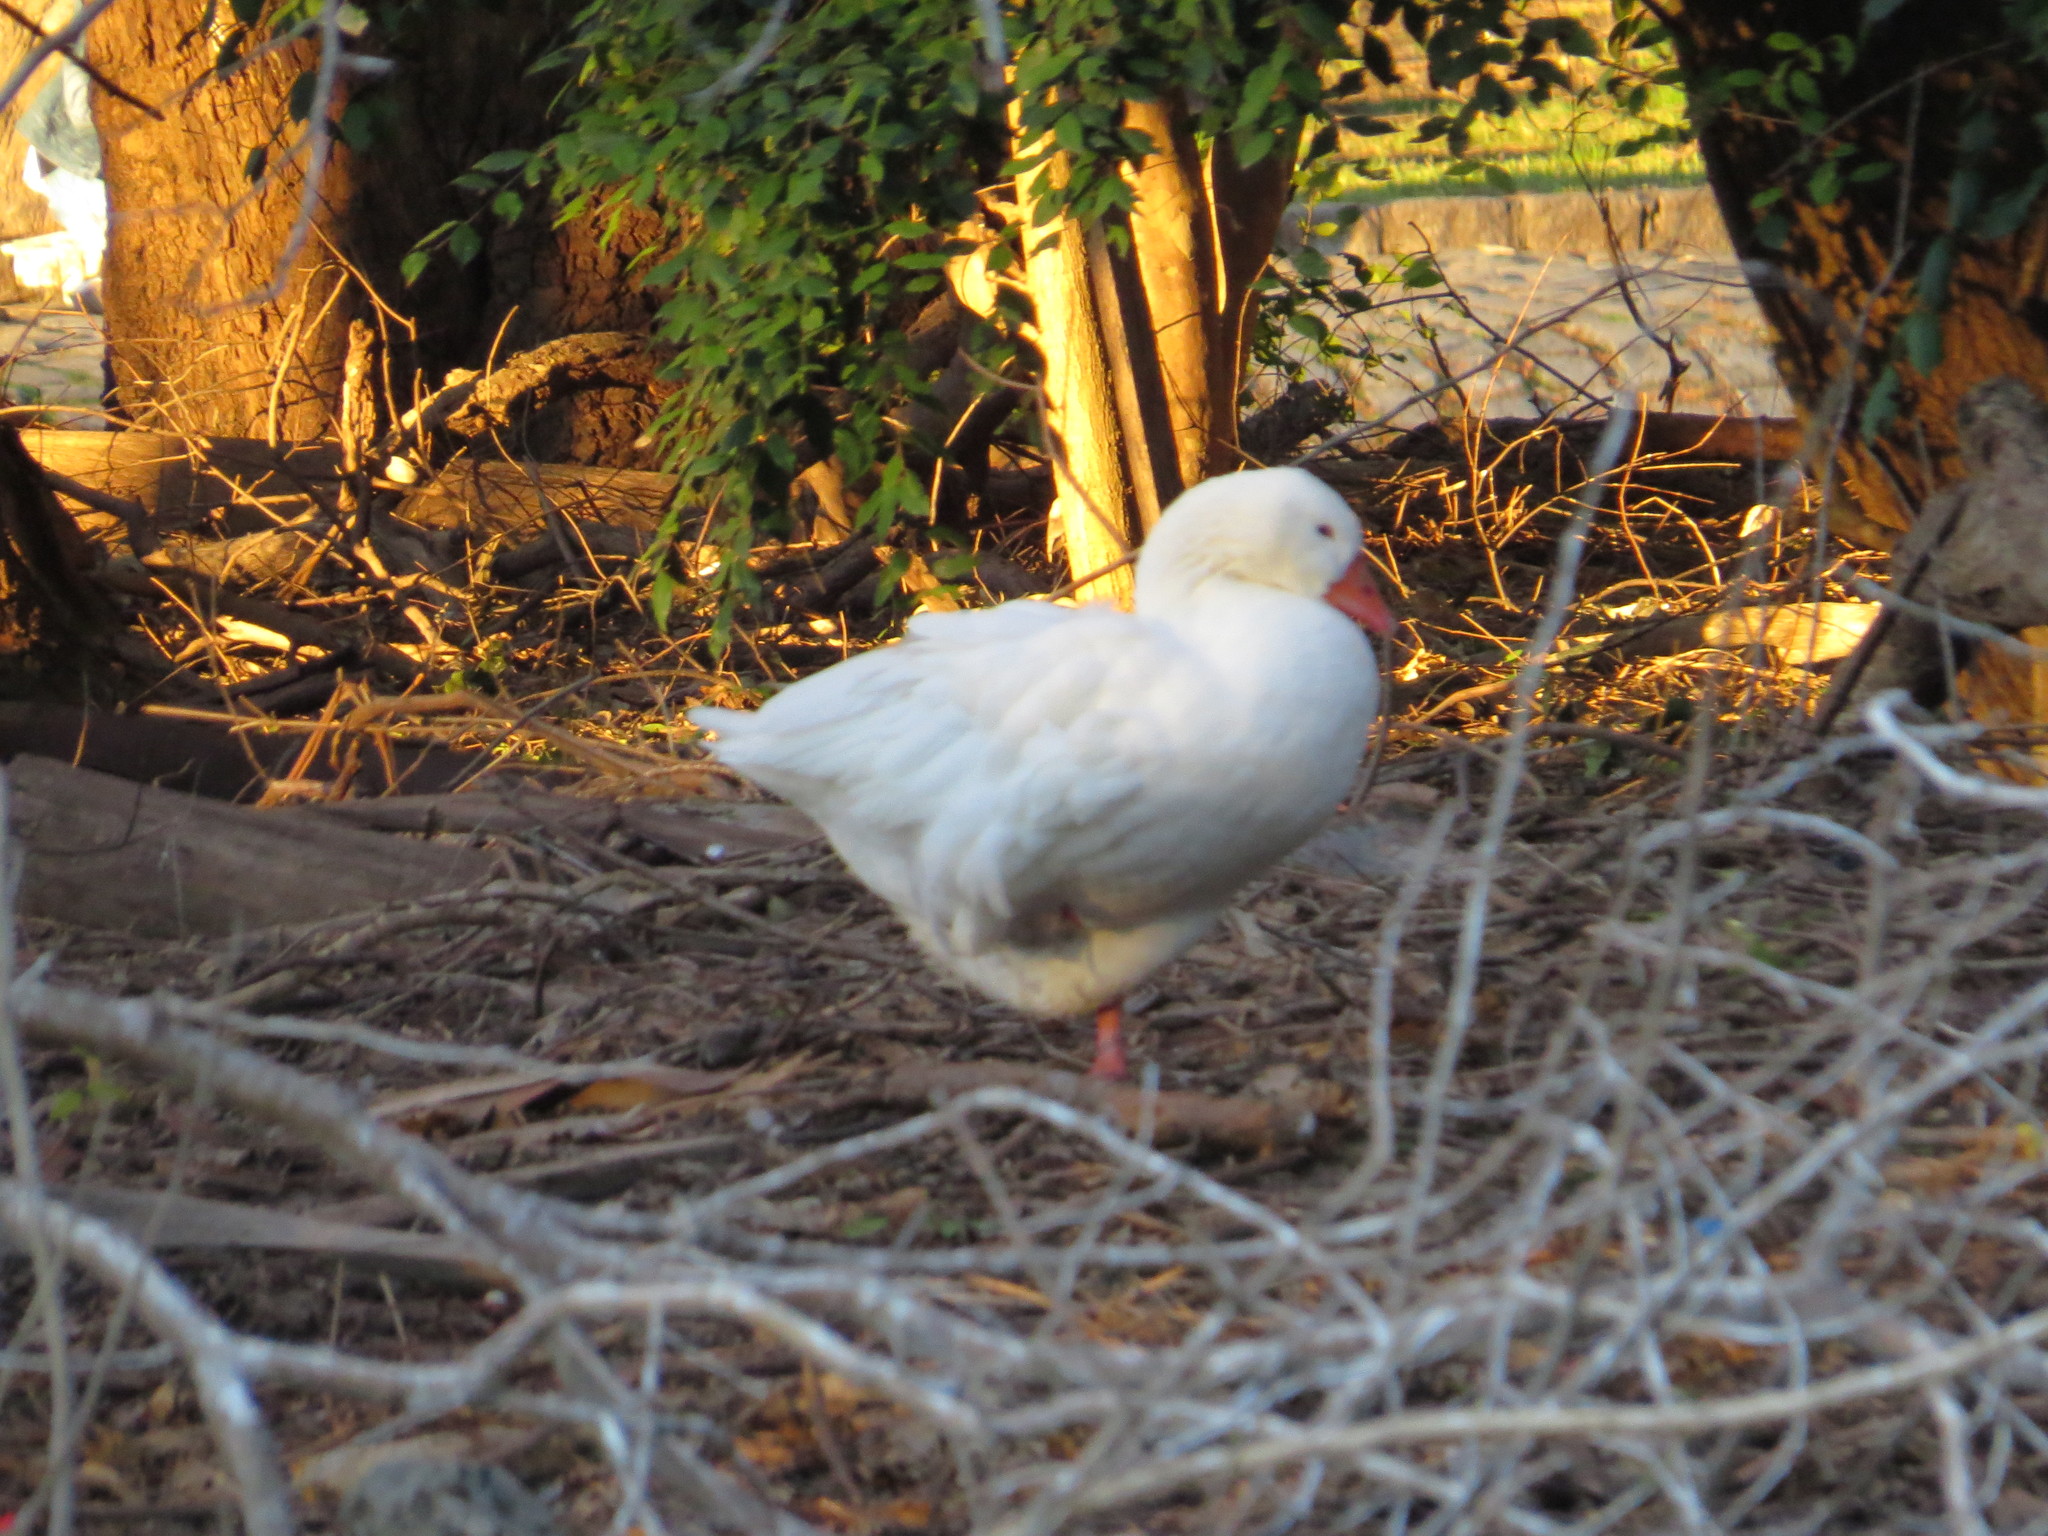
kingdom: Animalia
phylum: Chordata
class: Aves
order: Anseriformes
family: Anatidae
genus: Anser
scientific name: Anser anser
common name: Greylag goose
